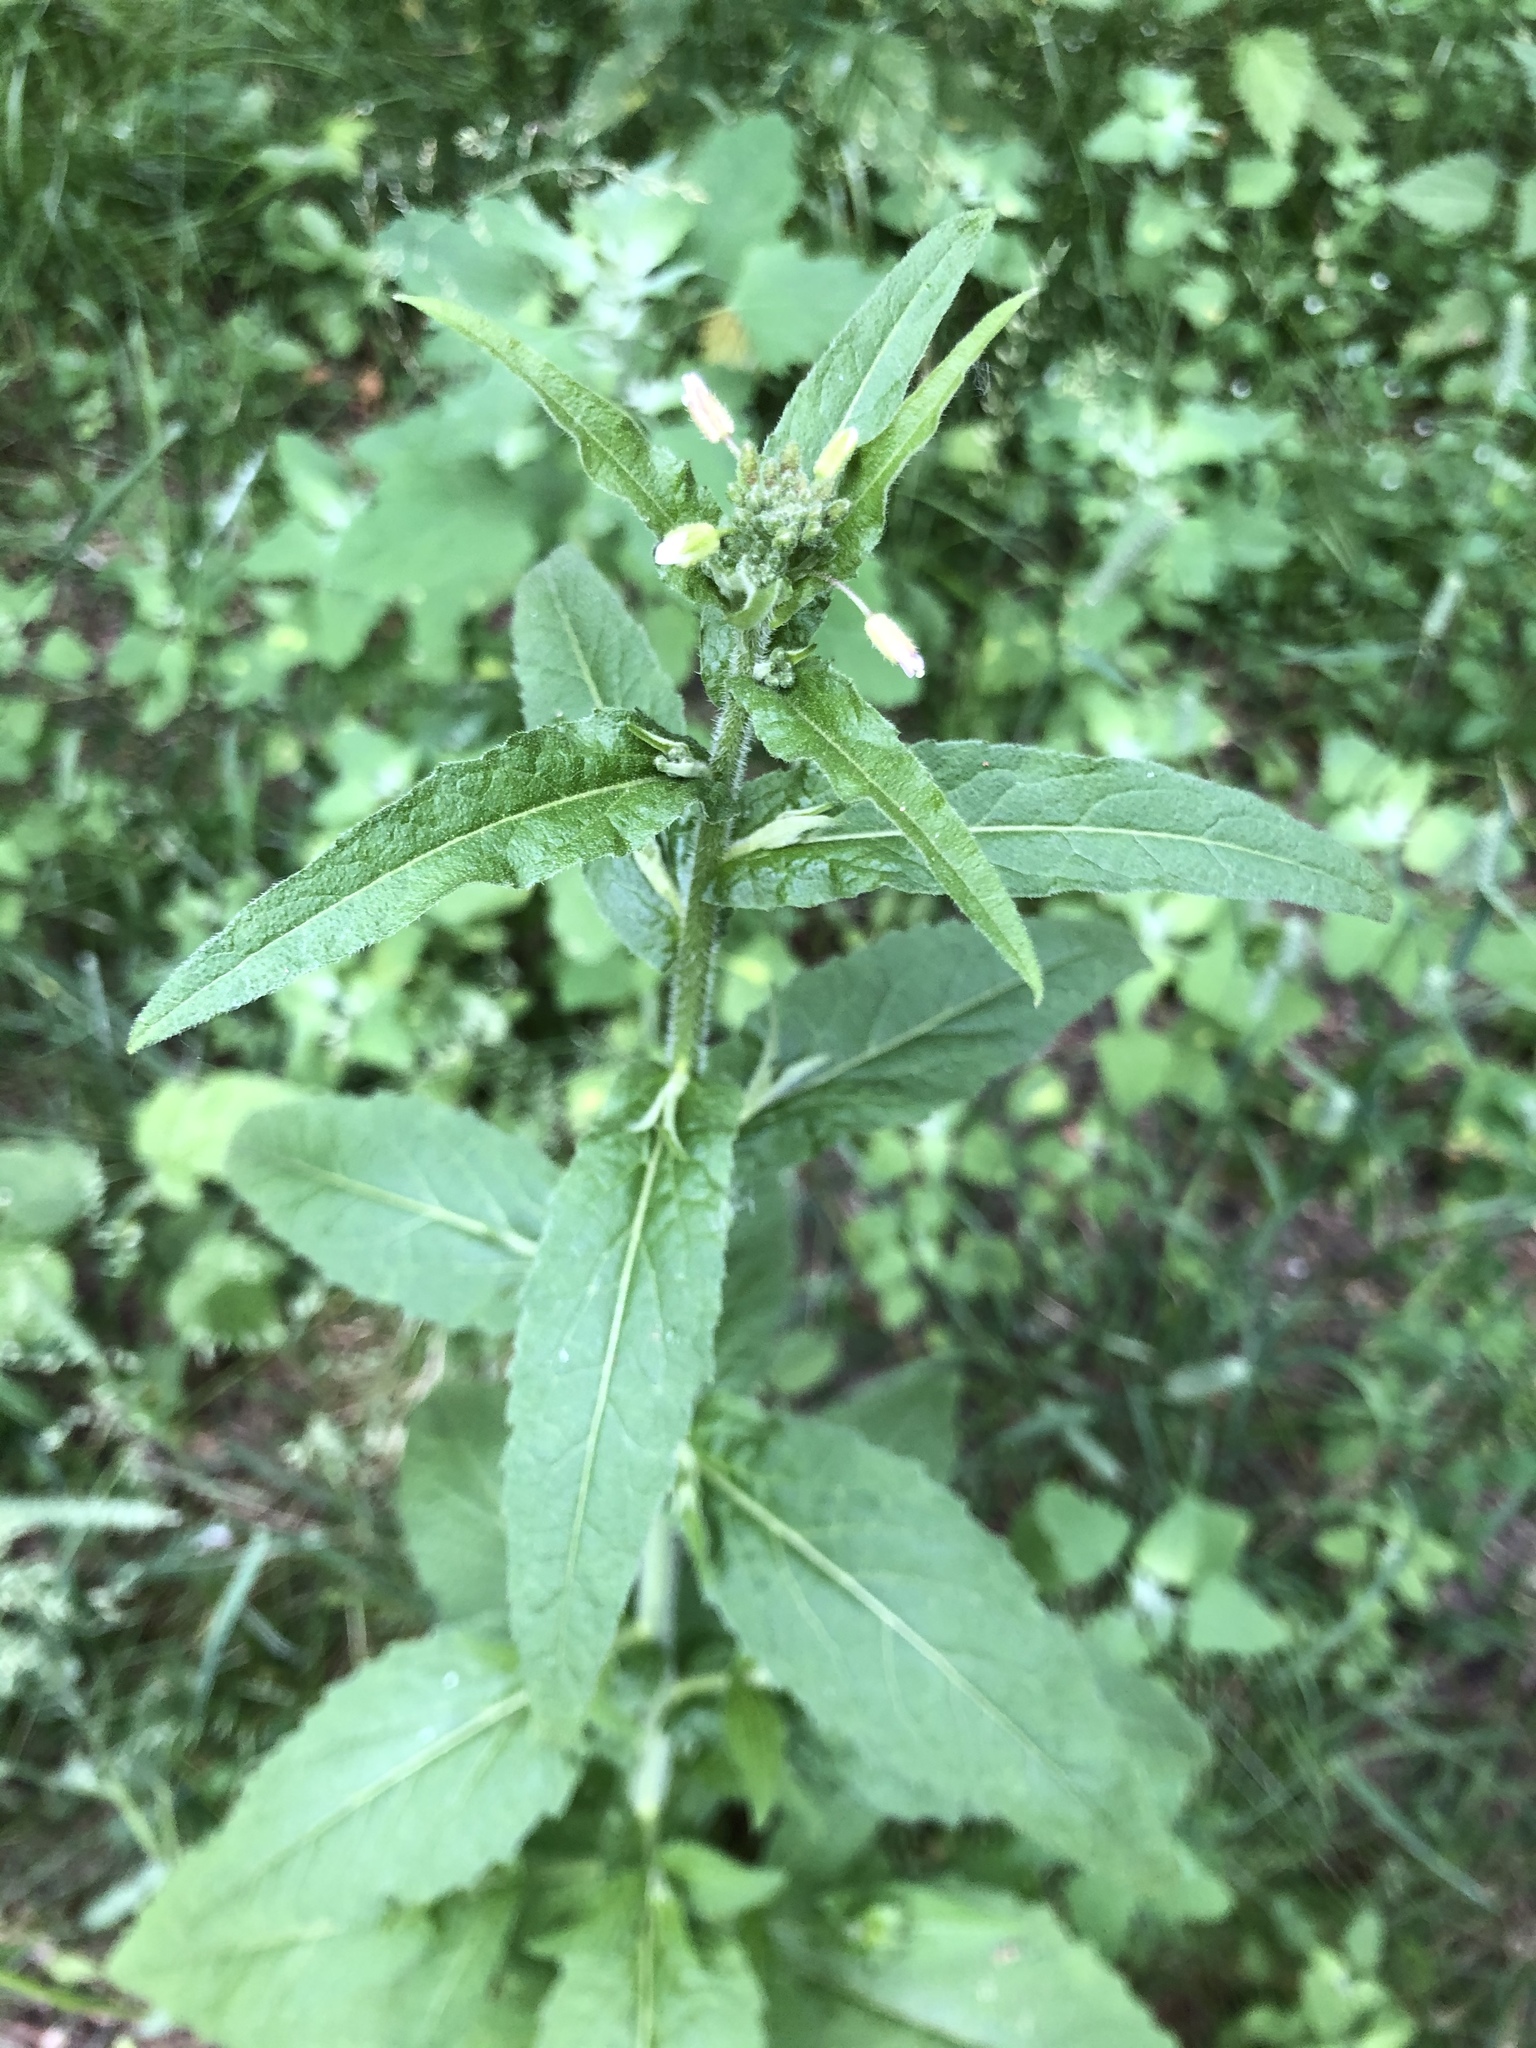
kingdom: Plantae
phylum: Tracheophyta
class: Magnoliopsida
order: Brassicales
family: Brassicaceae
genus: Catolobus
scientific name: Catolobus pendulus
